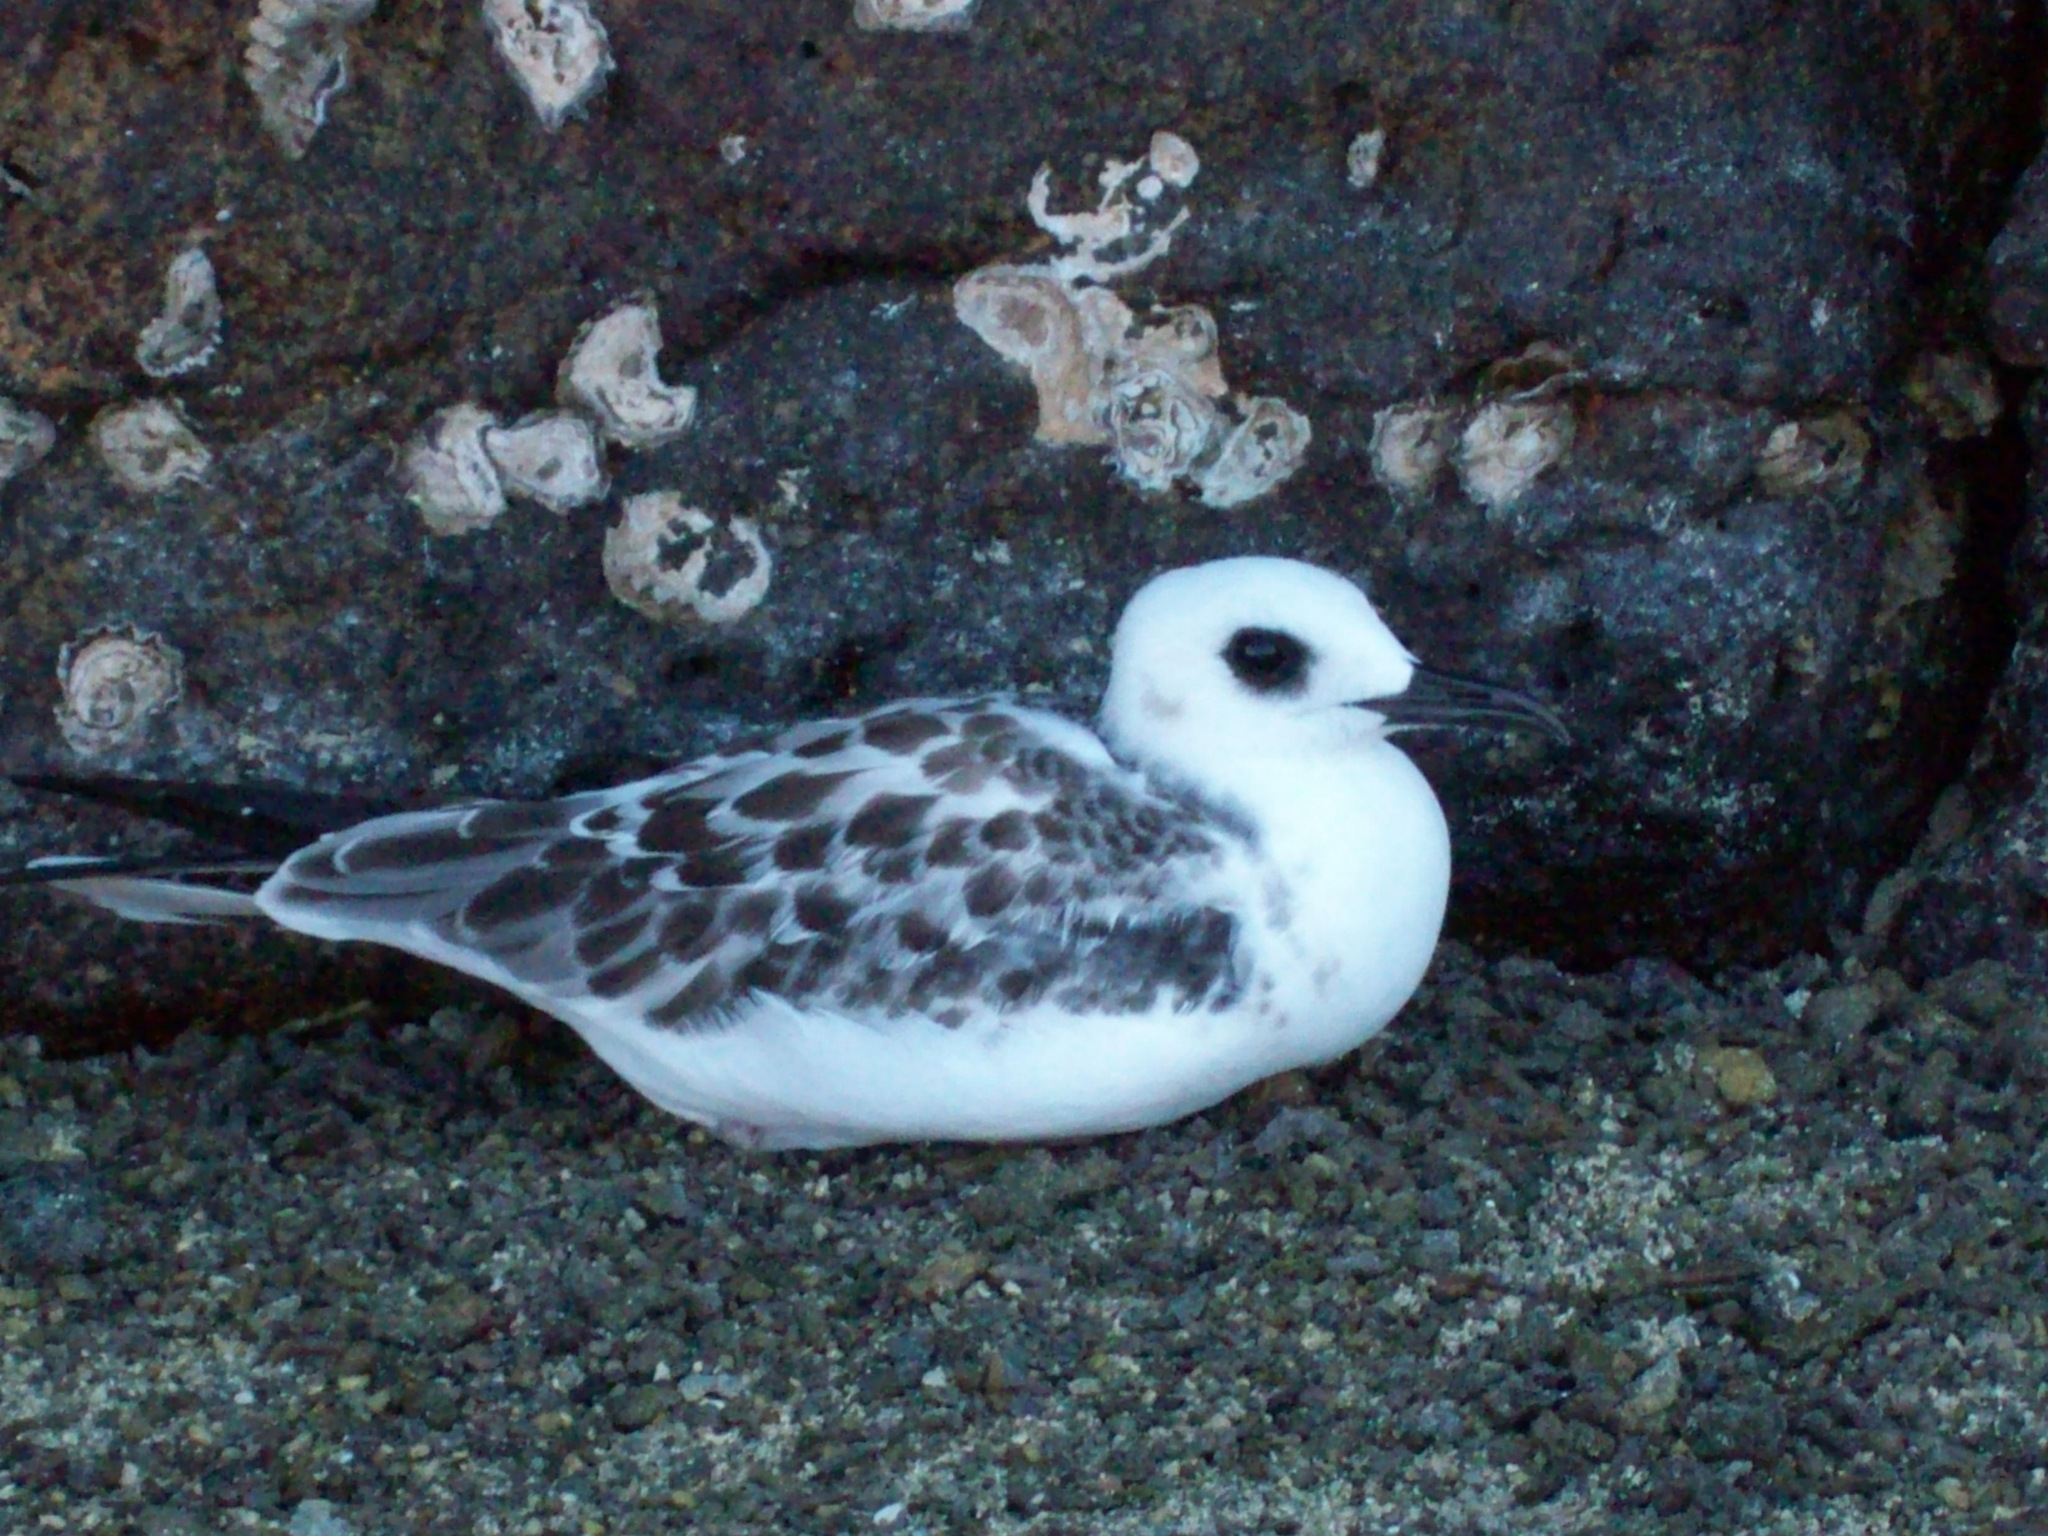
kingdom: Animalia
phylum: Chordata
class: Aves
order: Charadriiformes
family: Laridae
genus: Creagrus
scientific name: Creagrus furcatus
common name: Swallow-tailed gull
